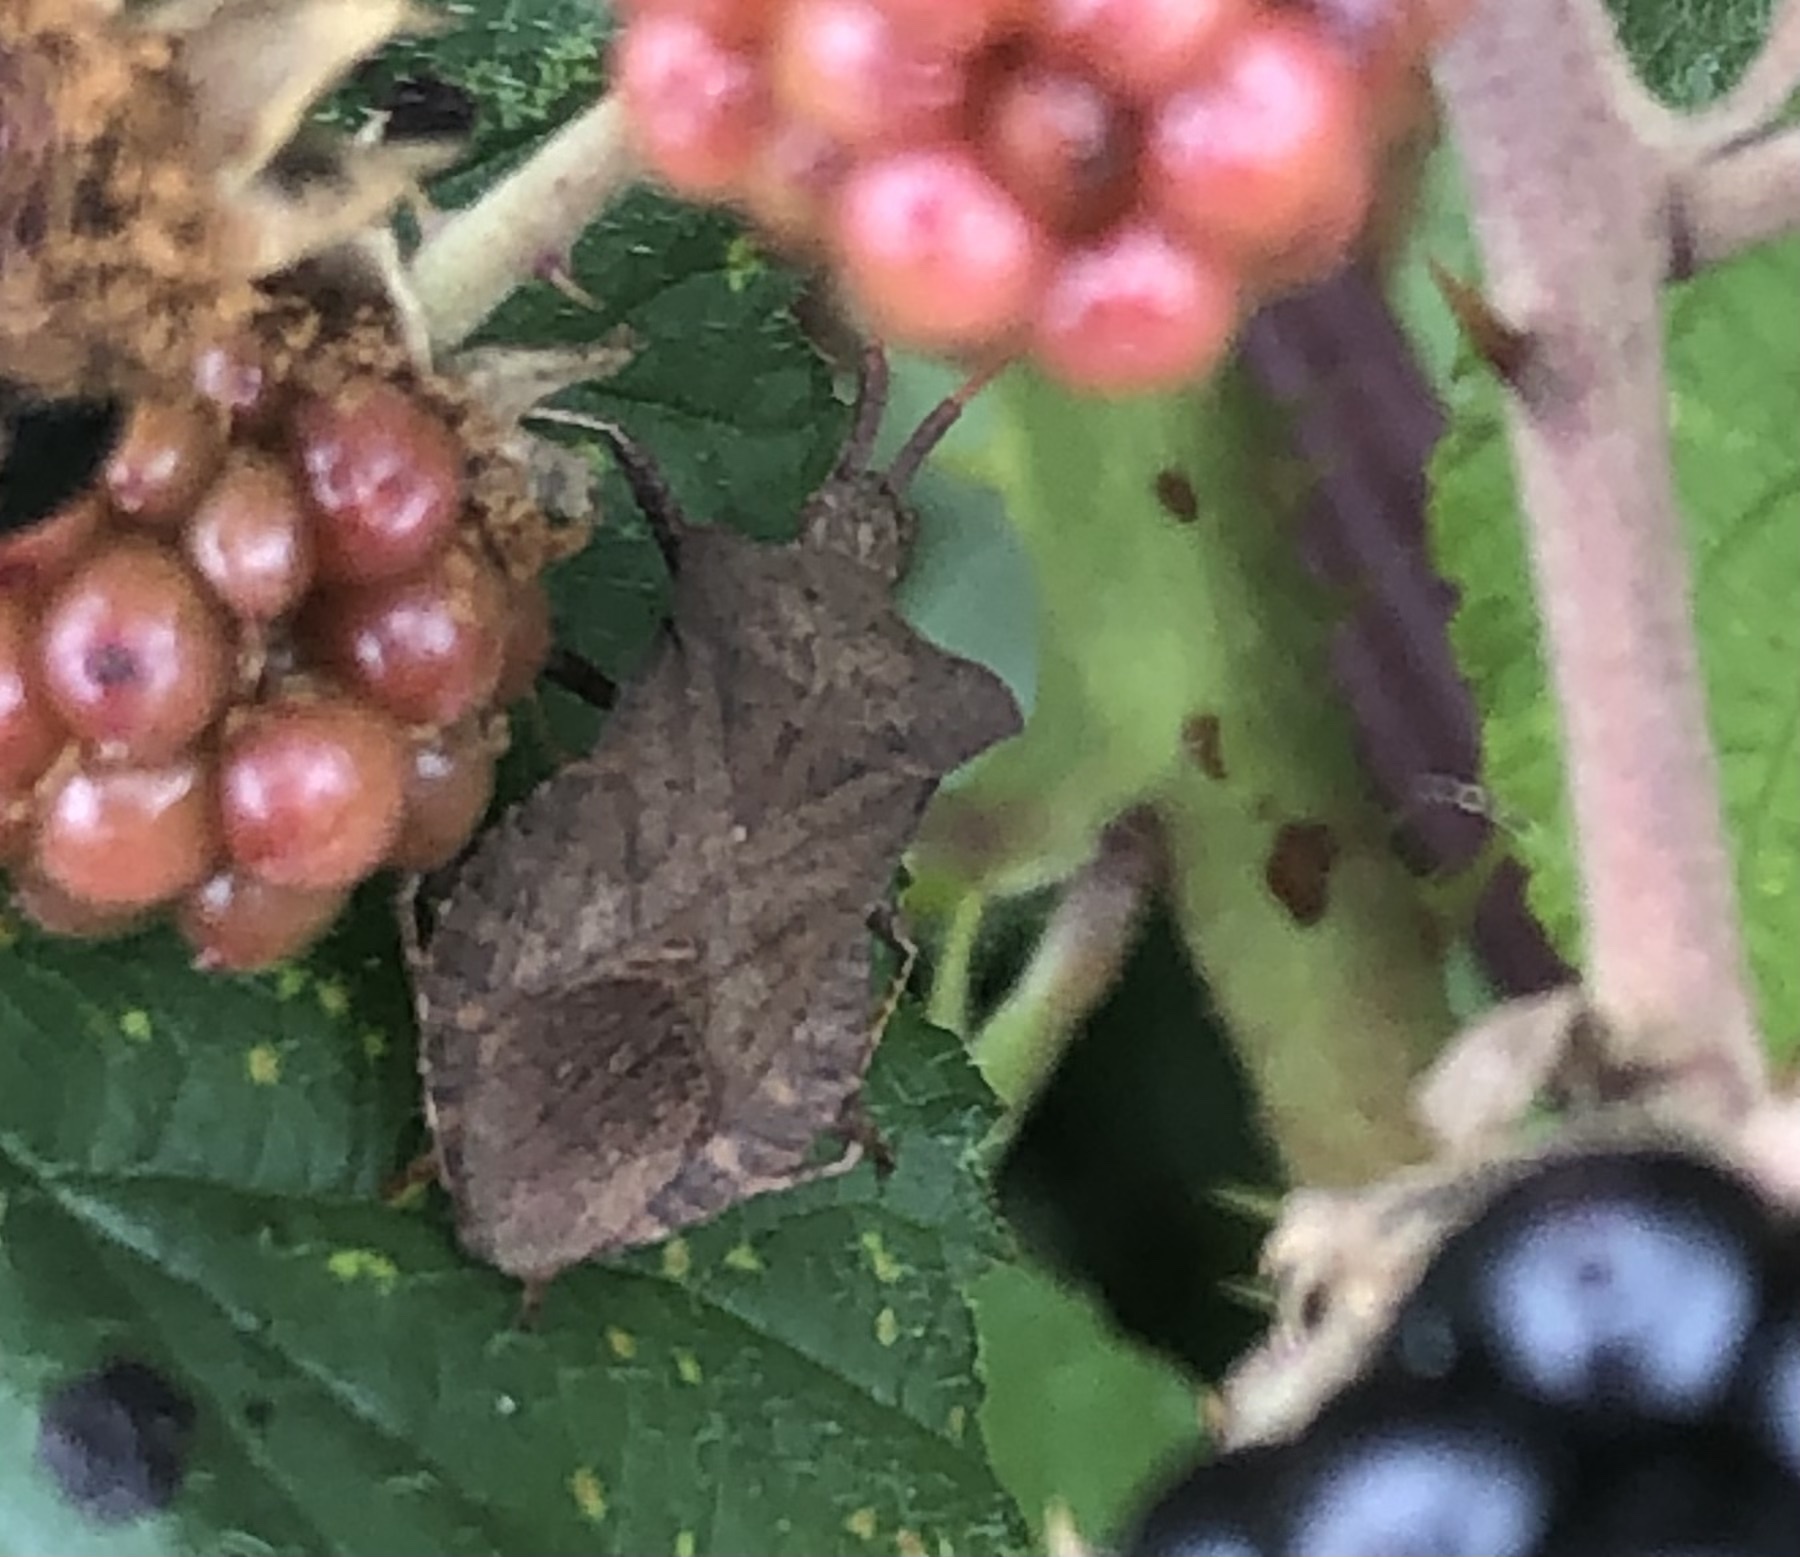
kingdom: Animalia
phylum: Arthropoda
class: Insecta
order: Hemiptera
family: Coreidae
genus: Coreus
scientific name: Coreus marginatus
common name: Dock bug
